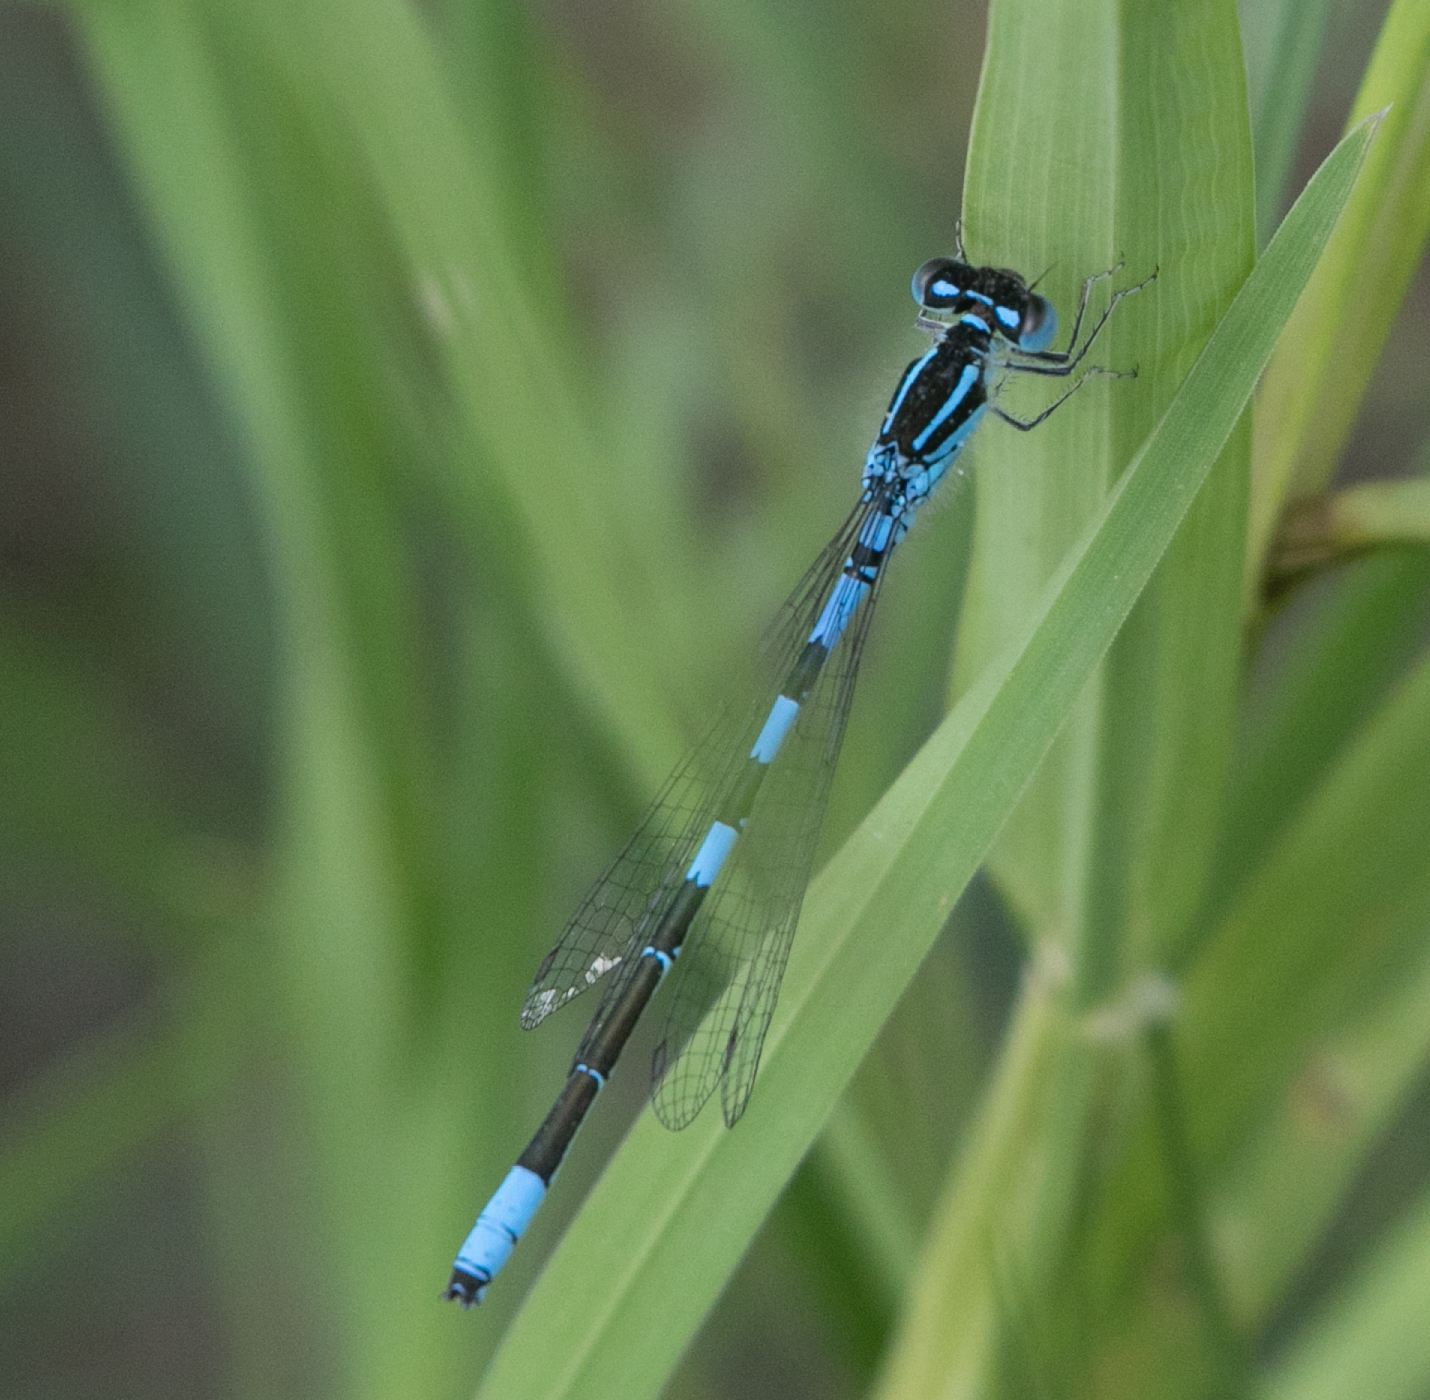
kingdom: Animalia
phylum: Arthropoda
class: Insecta
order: Odonata
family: Coenagrionidae
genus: Coenagrion
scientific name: Coenagrion scitulum
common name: Dainty bluet
